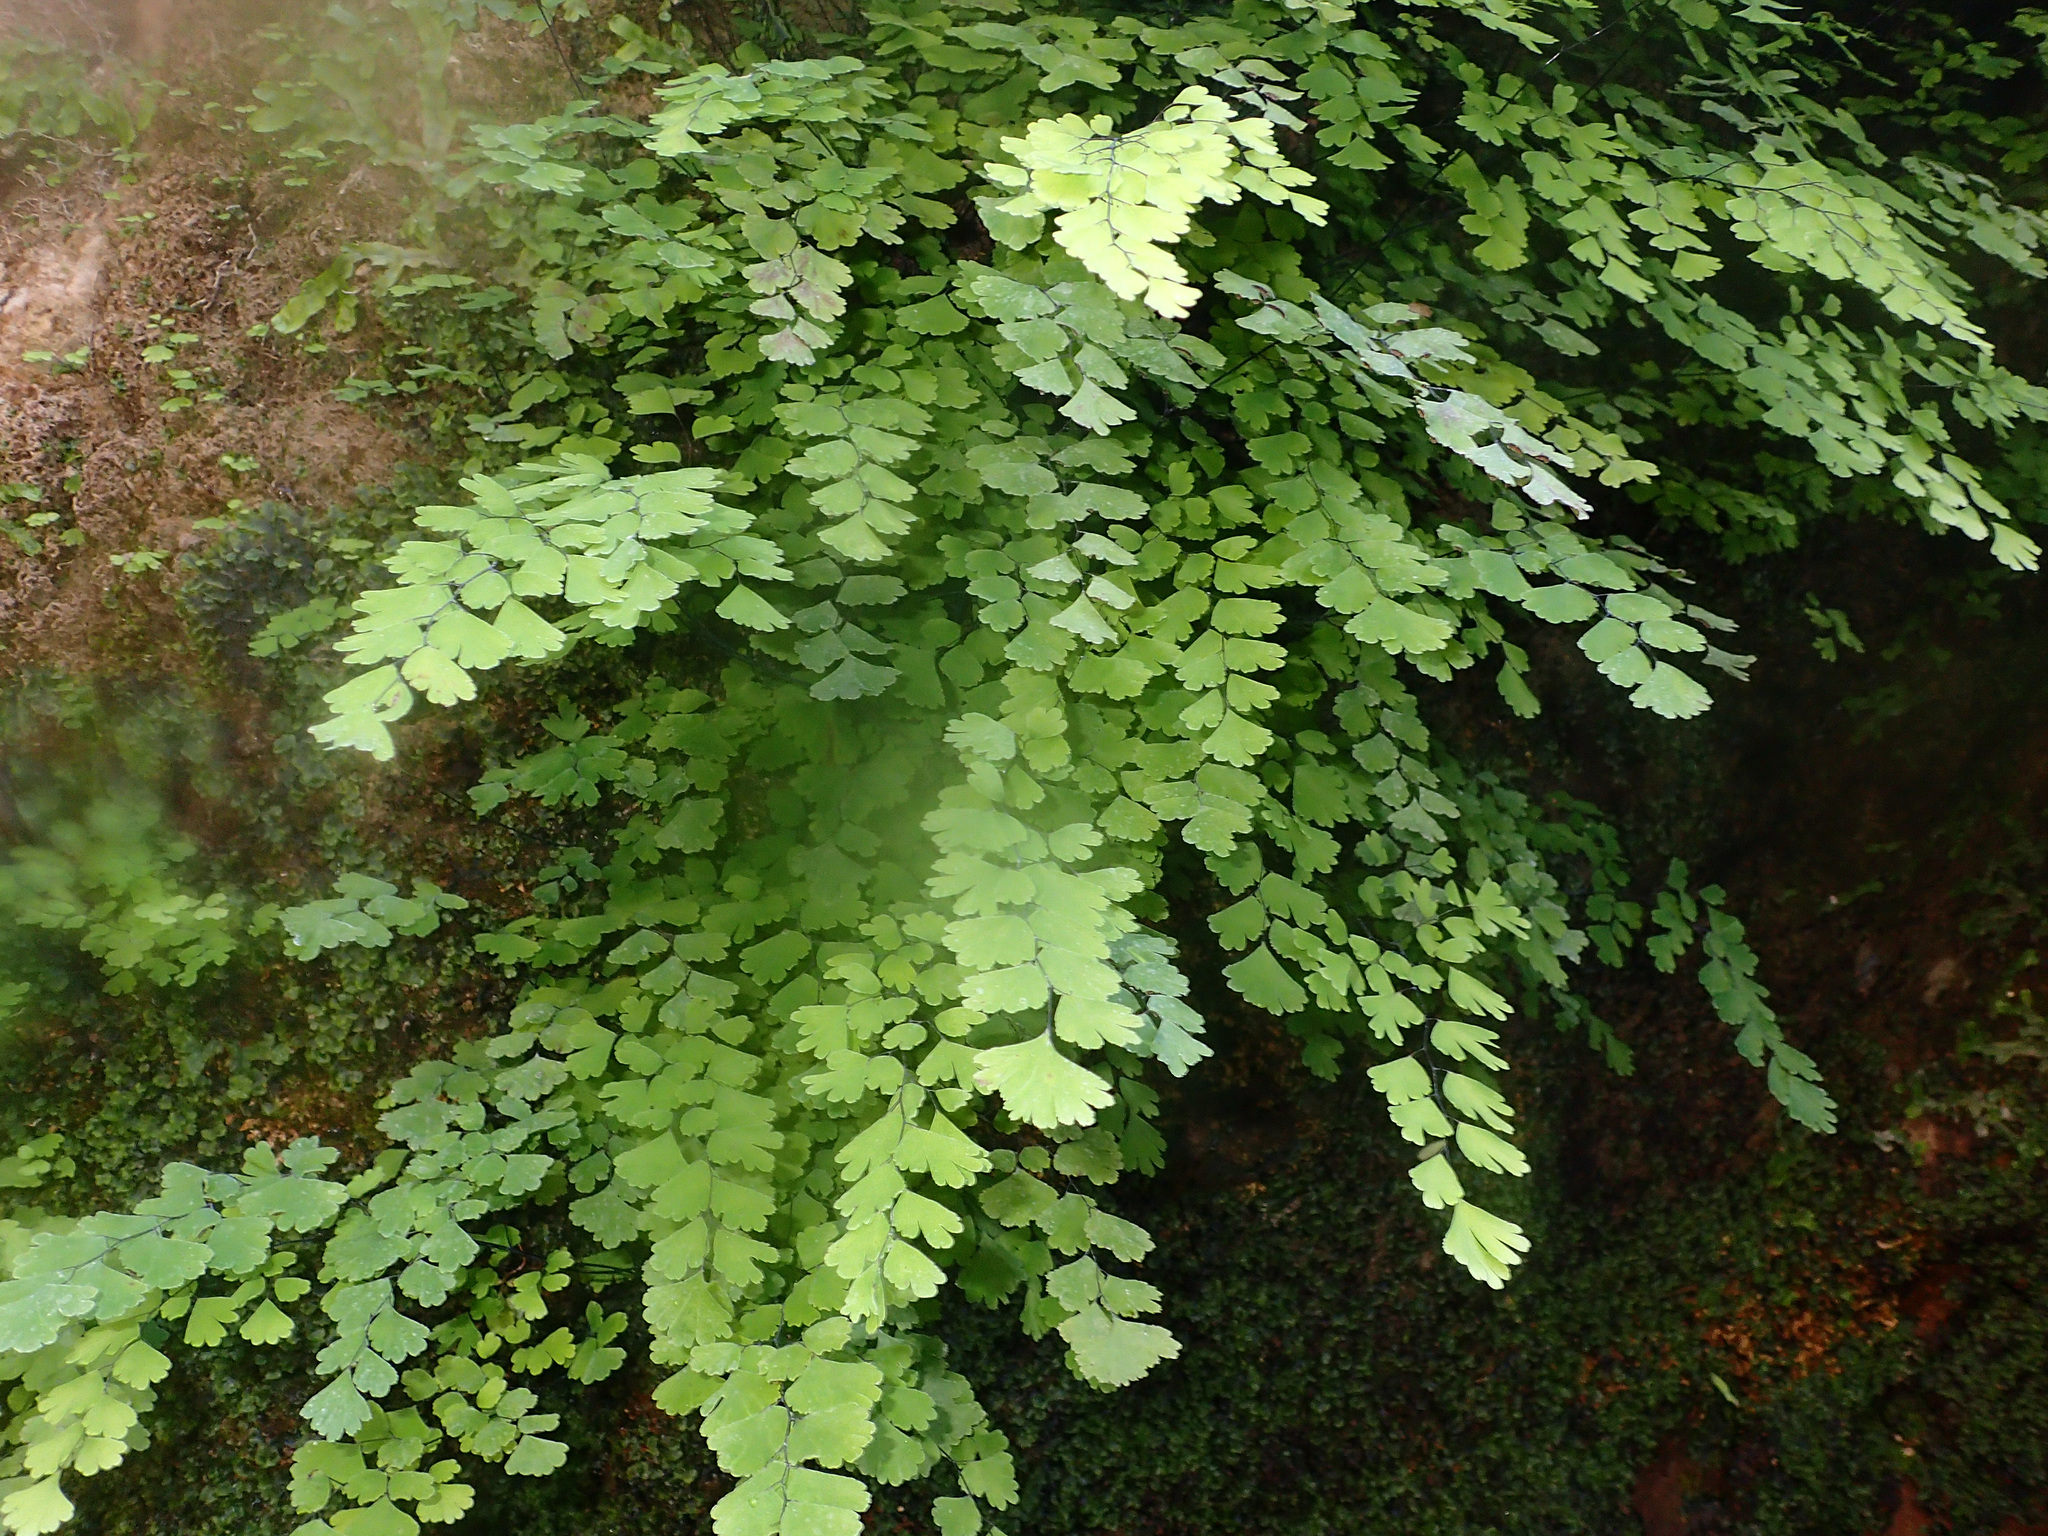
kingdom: Plantae
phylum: Tracheophyta
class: Polypodiopsida
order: Polypodiales
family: Pteridaceae
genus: Adiantum
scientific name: Adiantum capillus-veneris
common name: Maidenhair fern
